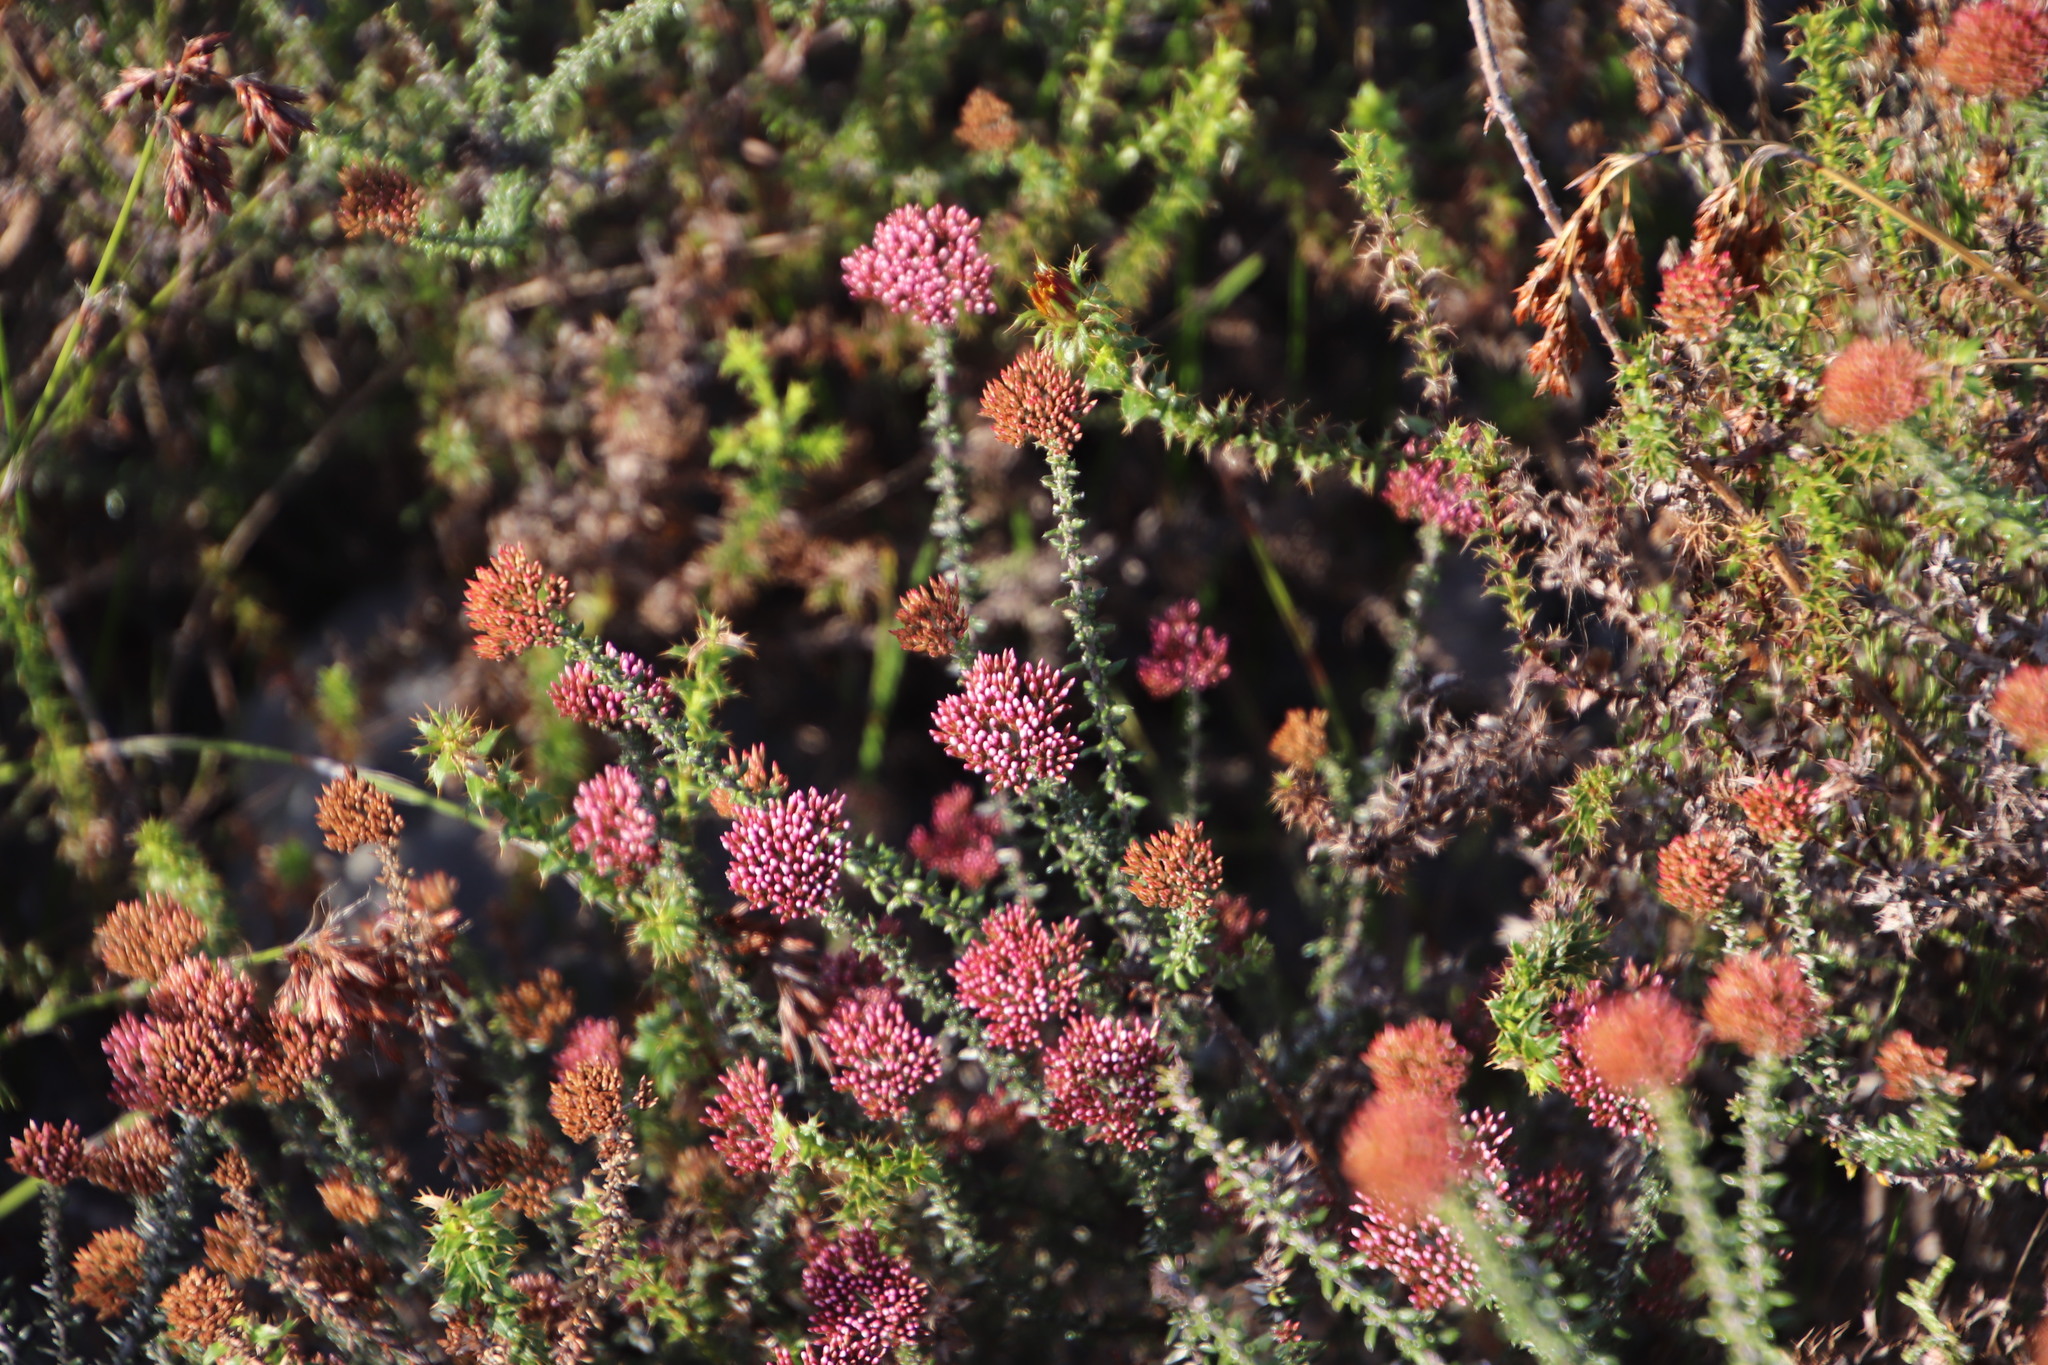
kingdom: Plantae
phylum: Tracheophyta
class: Magnoliopsida
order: Asterales
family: Asteraceae
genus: Metalasia
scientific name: Metalasia densa
